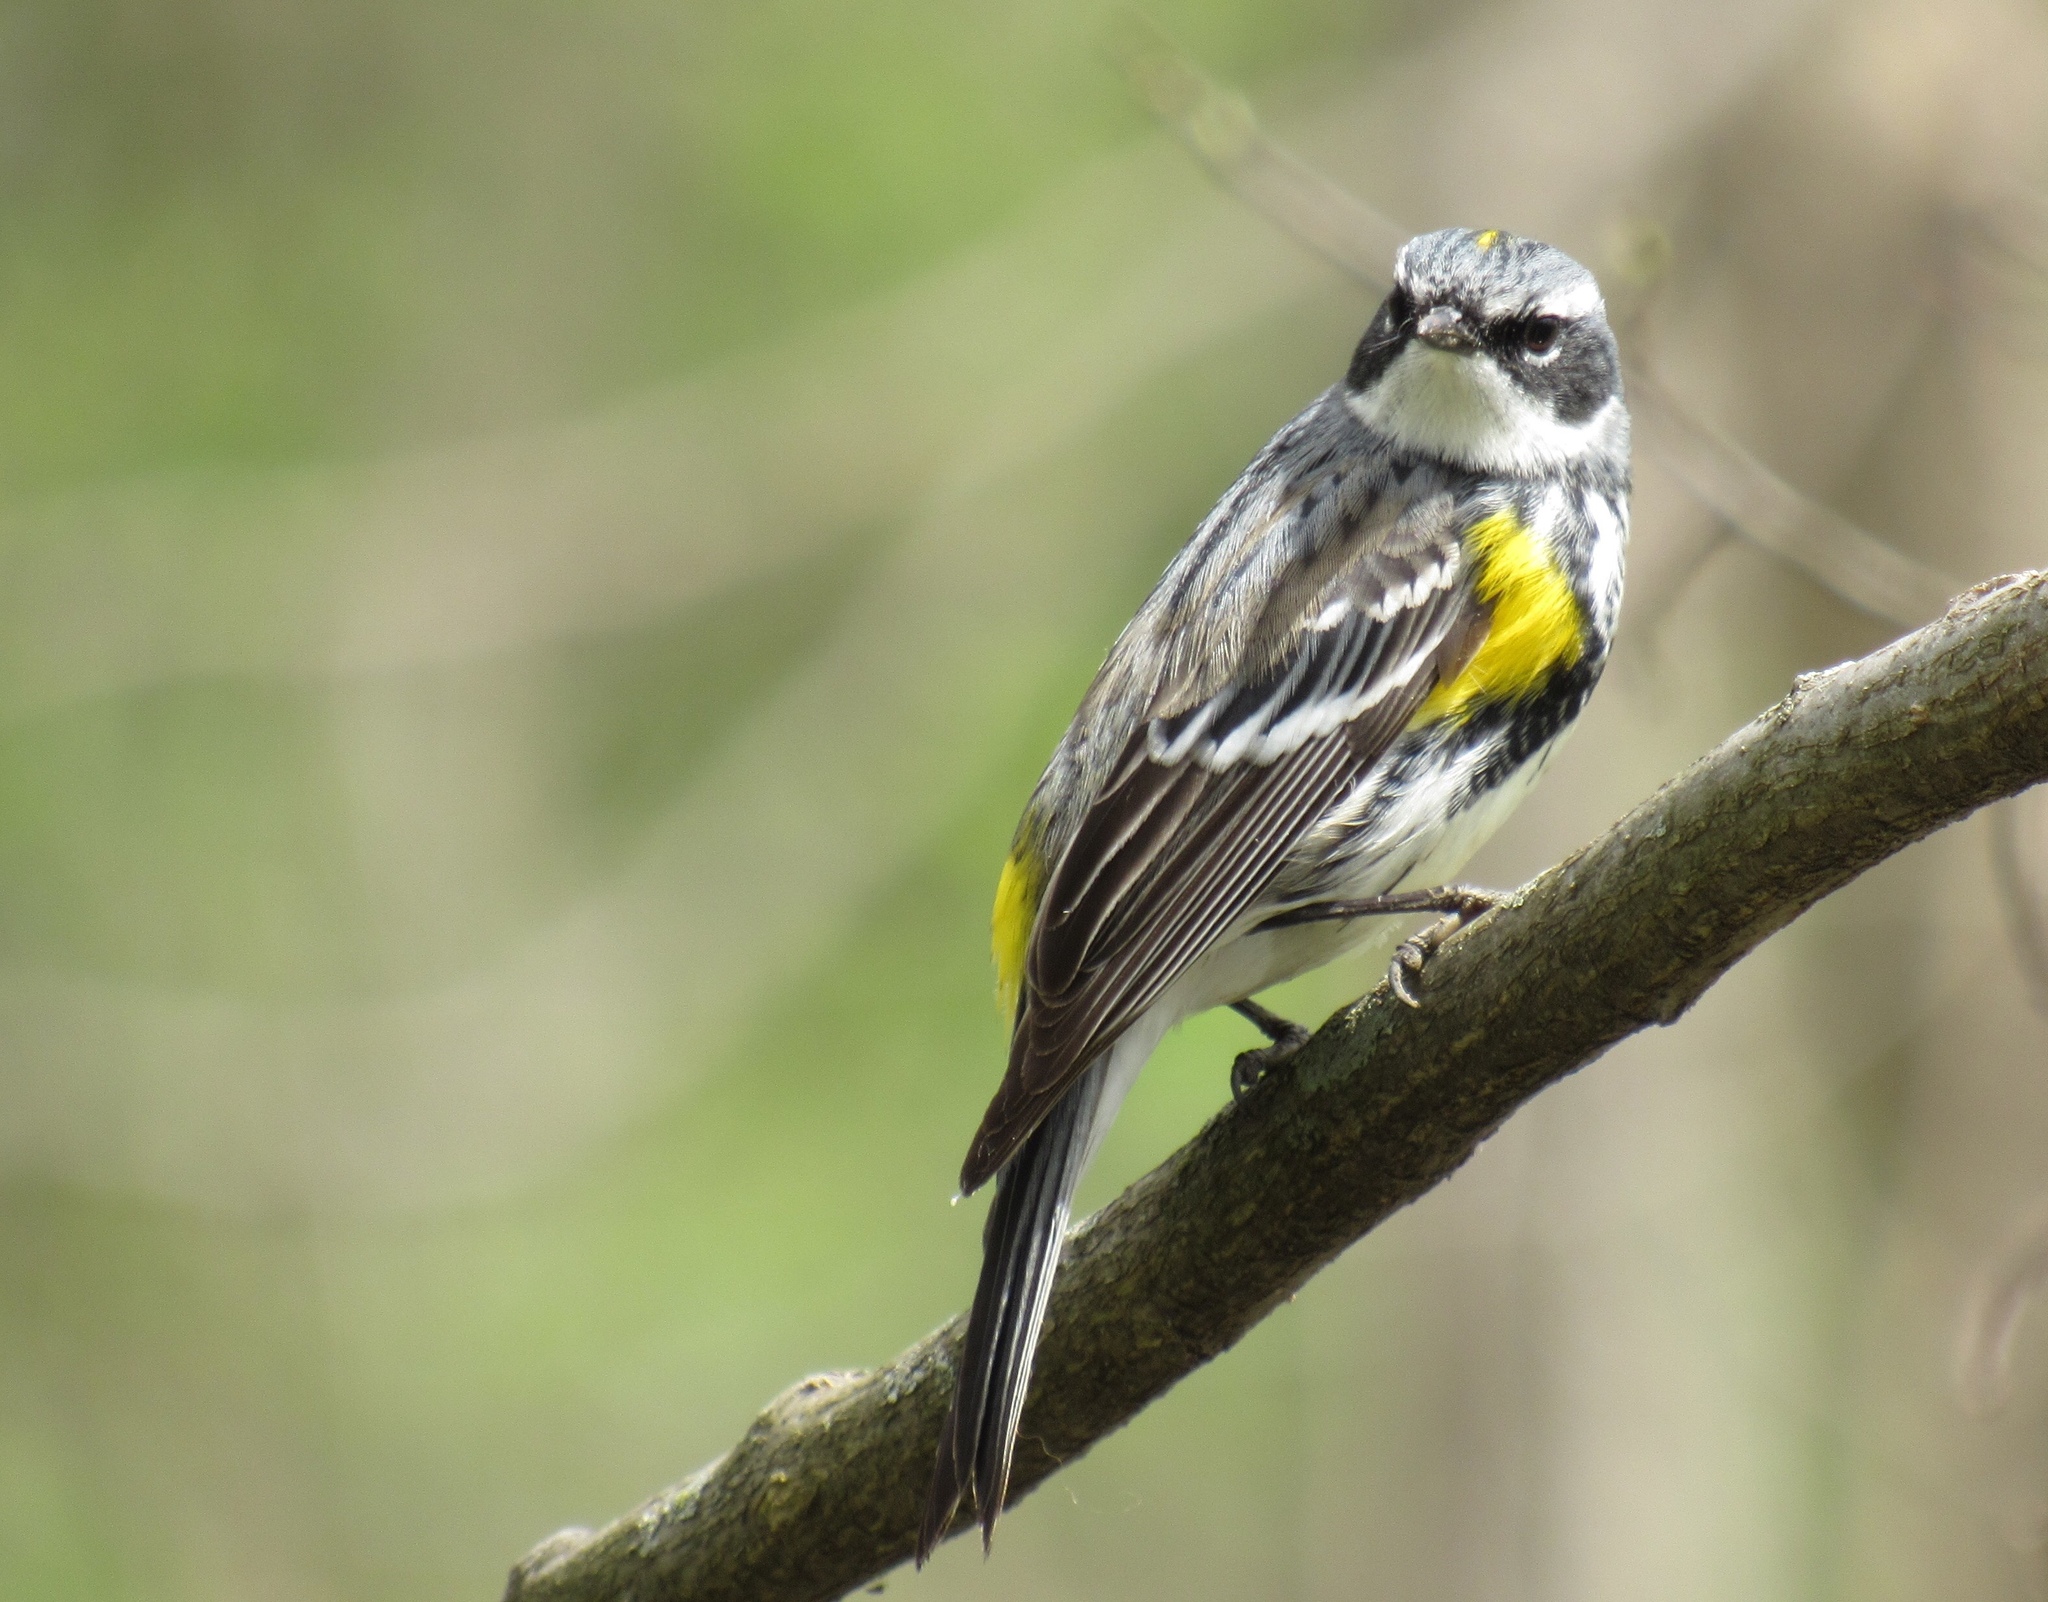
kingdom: Animalia
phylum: Chordata
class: Aves
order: Passeriformes
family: Parulidae
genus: Setophaga
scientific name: Setophaga coronata
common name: Myrtle warbler
